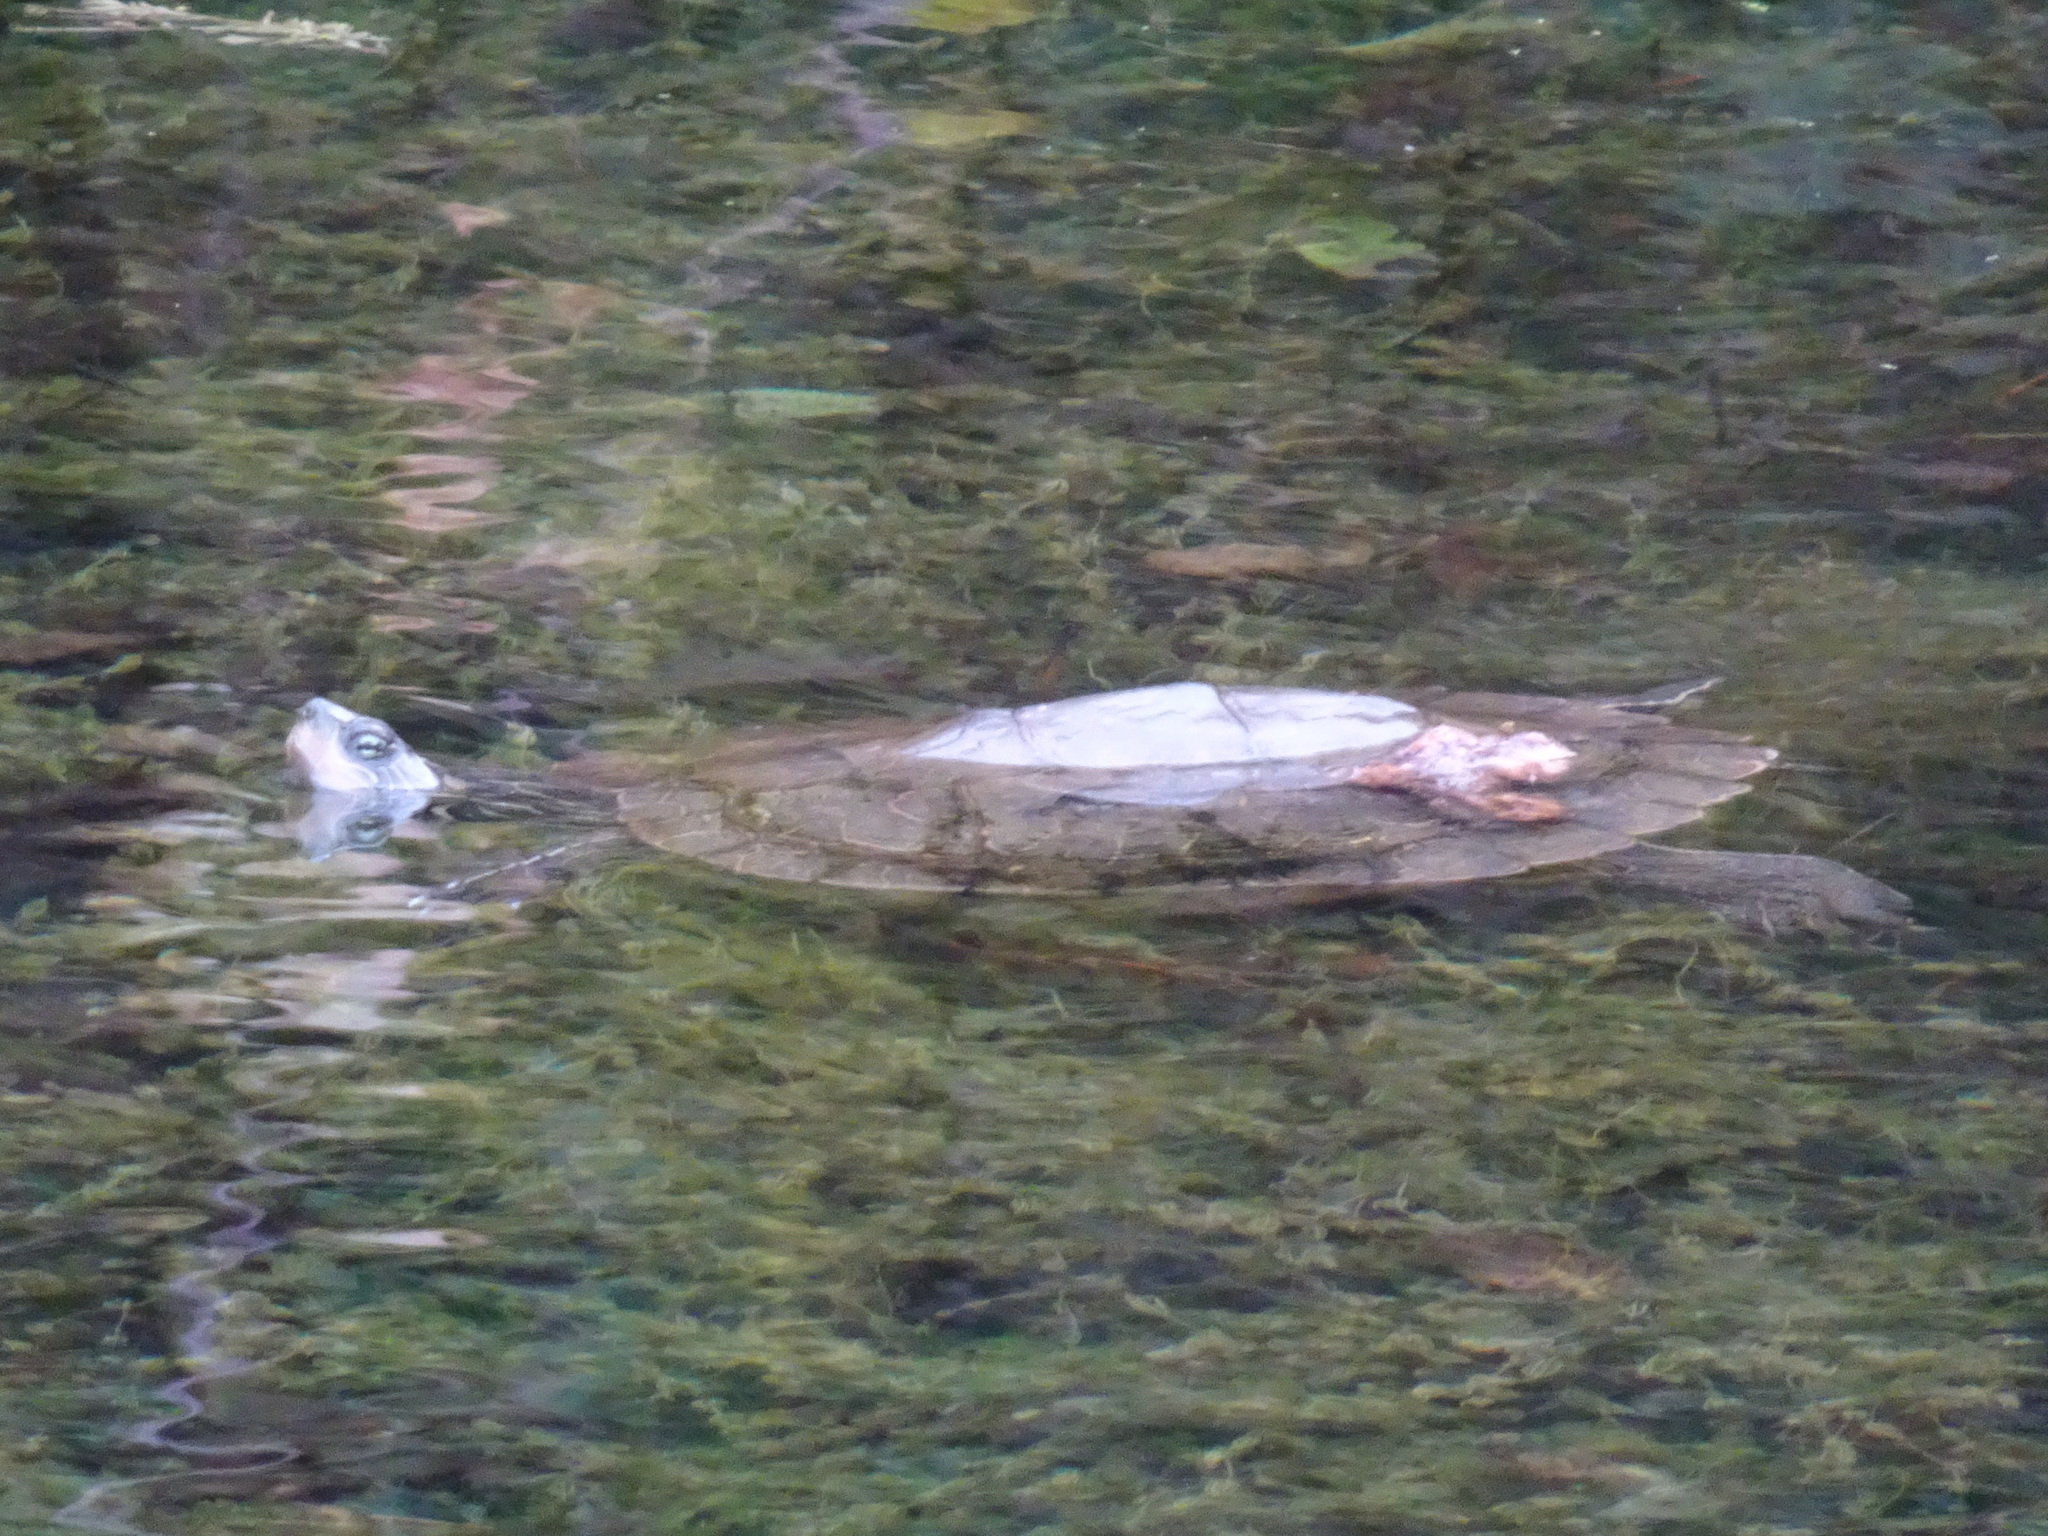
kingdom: Animalia
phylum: Chordata
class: Testudines
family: Emydidae
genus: Graptemys
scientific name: Graptemys geographica
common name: Common map turtle
